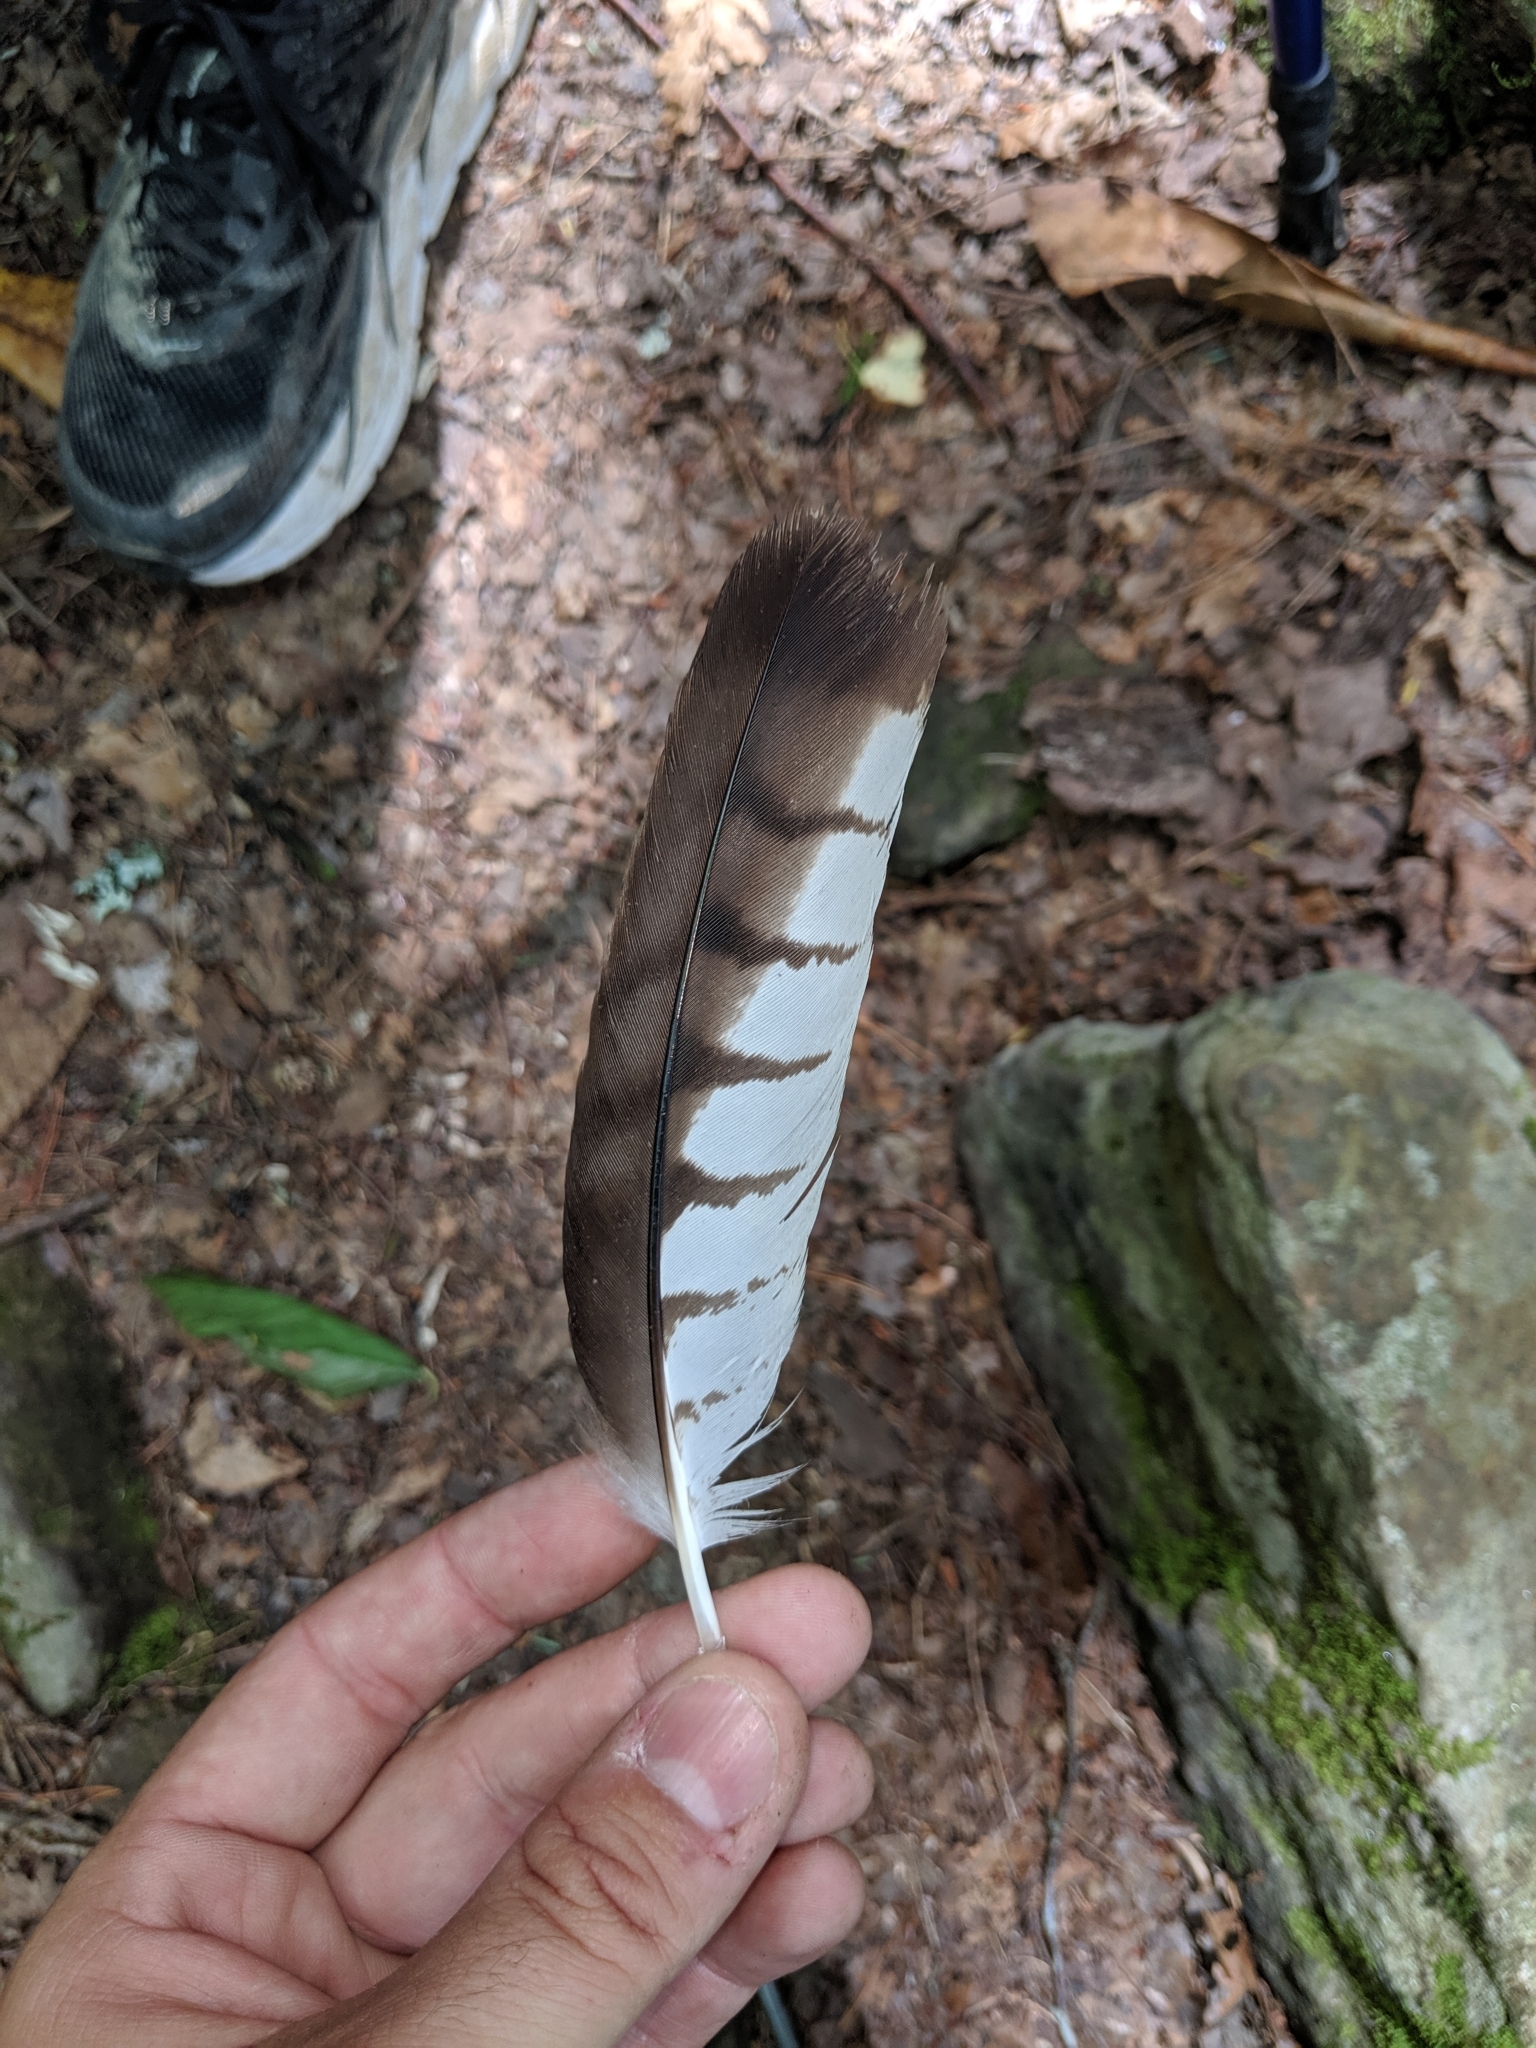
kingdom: Animalia
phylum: Chordata
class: Aves
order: Accipitriformes
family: Accipitridae
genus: Buteo
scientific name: Buteo platypterus
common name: Broad-winged hawk
